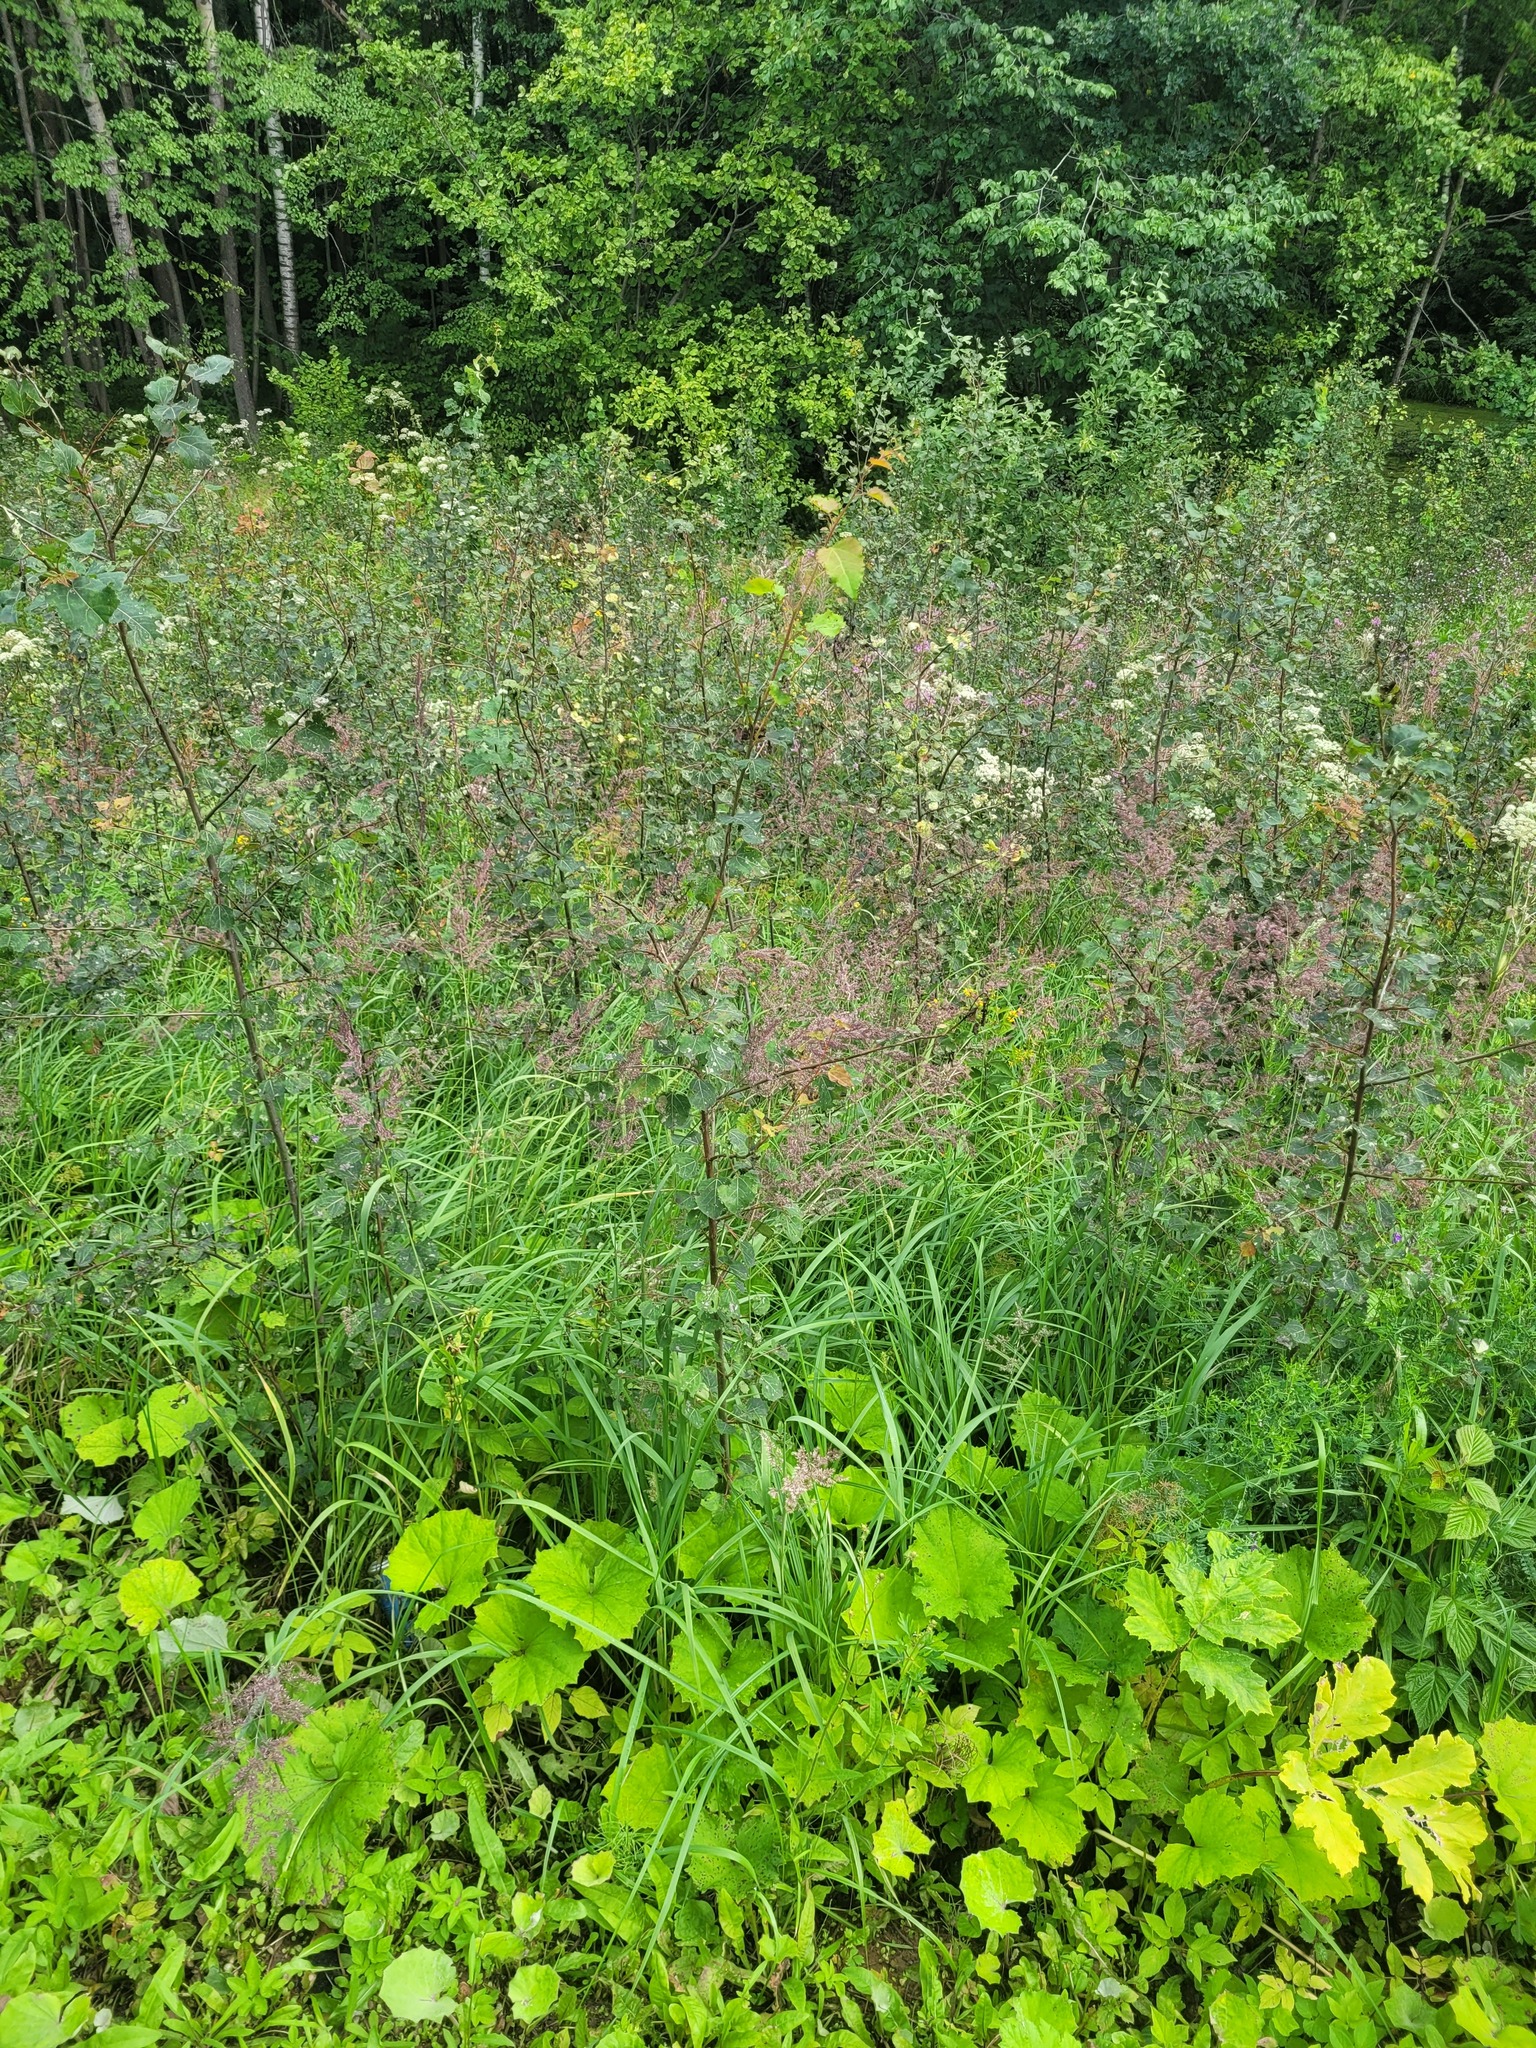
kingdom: Plantae
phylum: Tracheophyta
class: Magnoliopsida
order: Malpighiales
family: Salicaceae
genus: Populus
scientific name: Populus tremula
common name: European aspen
